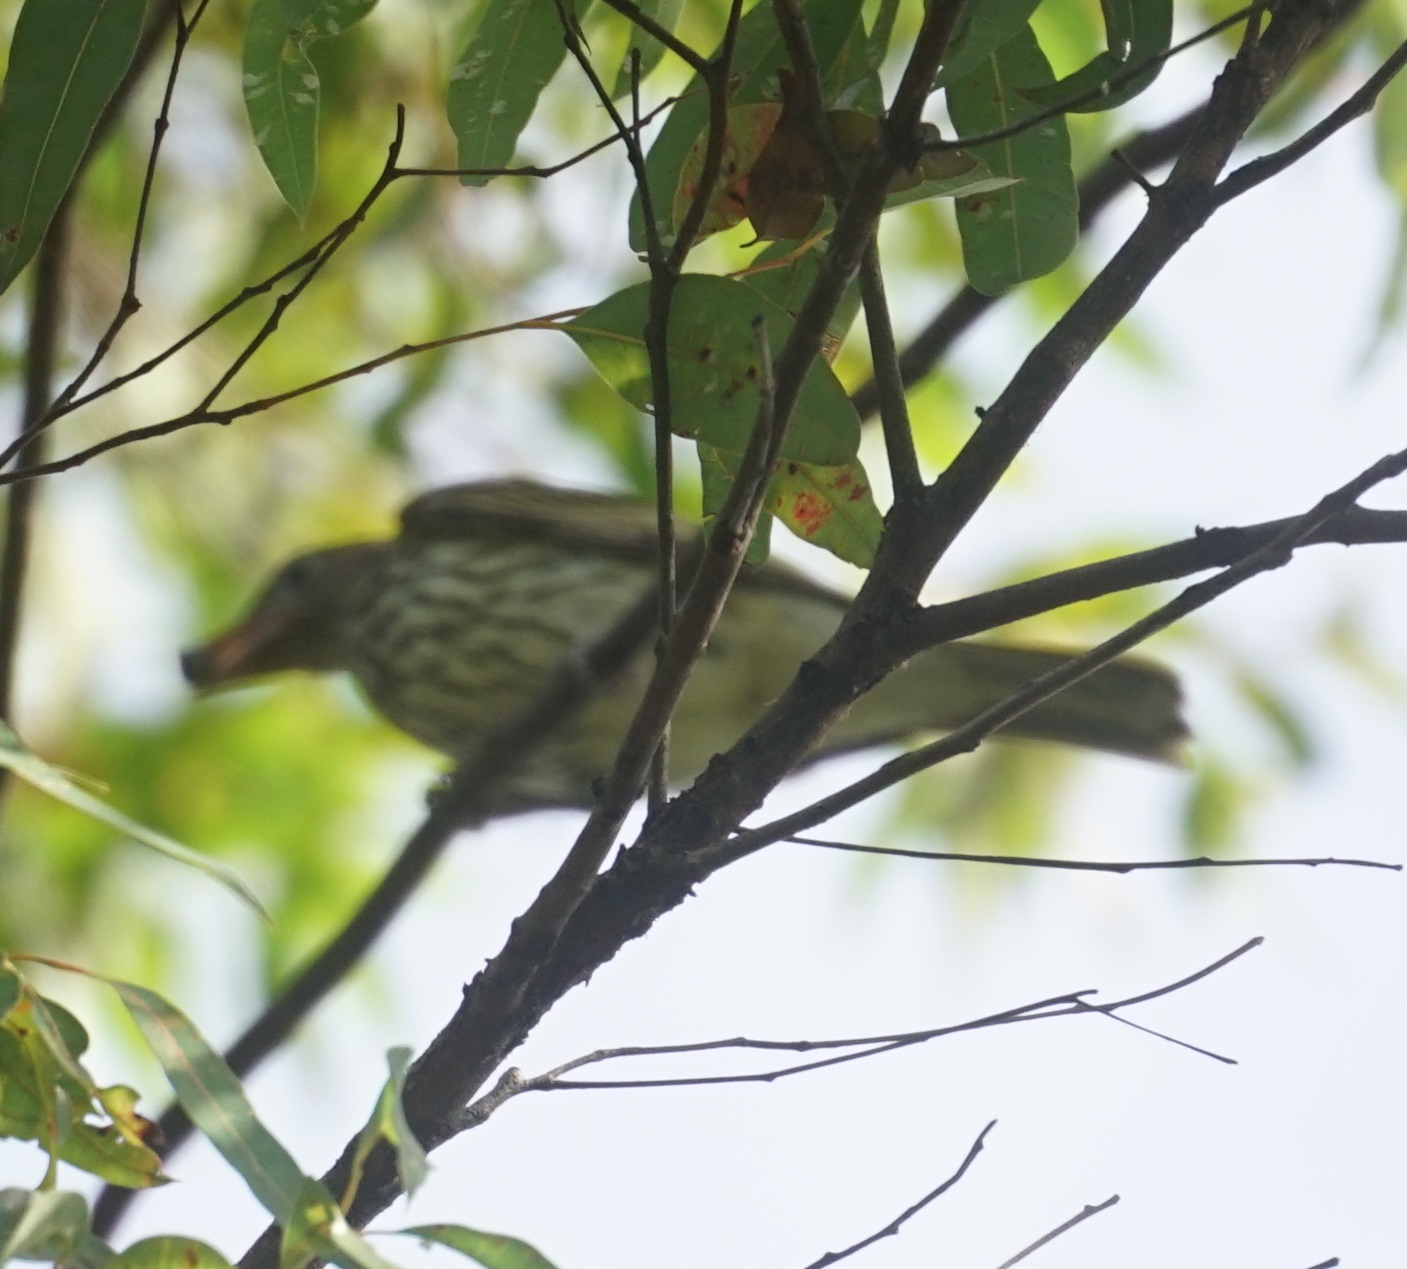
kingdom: Animalia
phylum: Chordata
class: Aves
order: Passeriformes
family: Oriolidae
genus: Sphecotheres
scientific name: Sphecotheres vieilloti
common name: Australasian figbird
